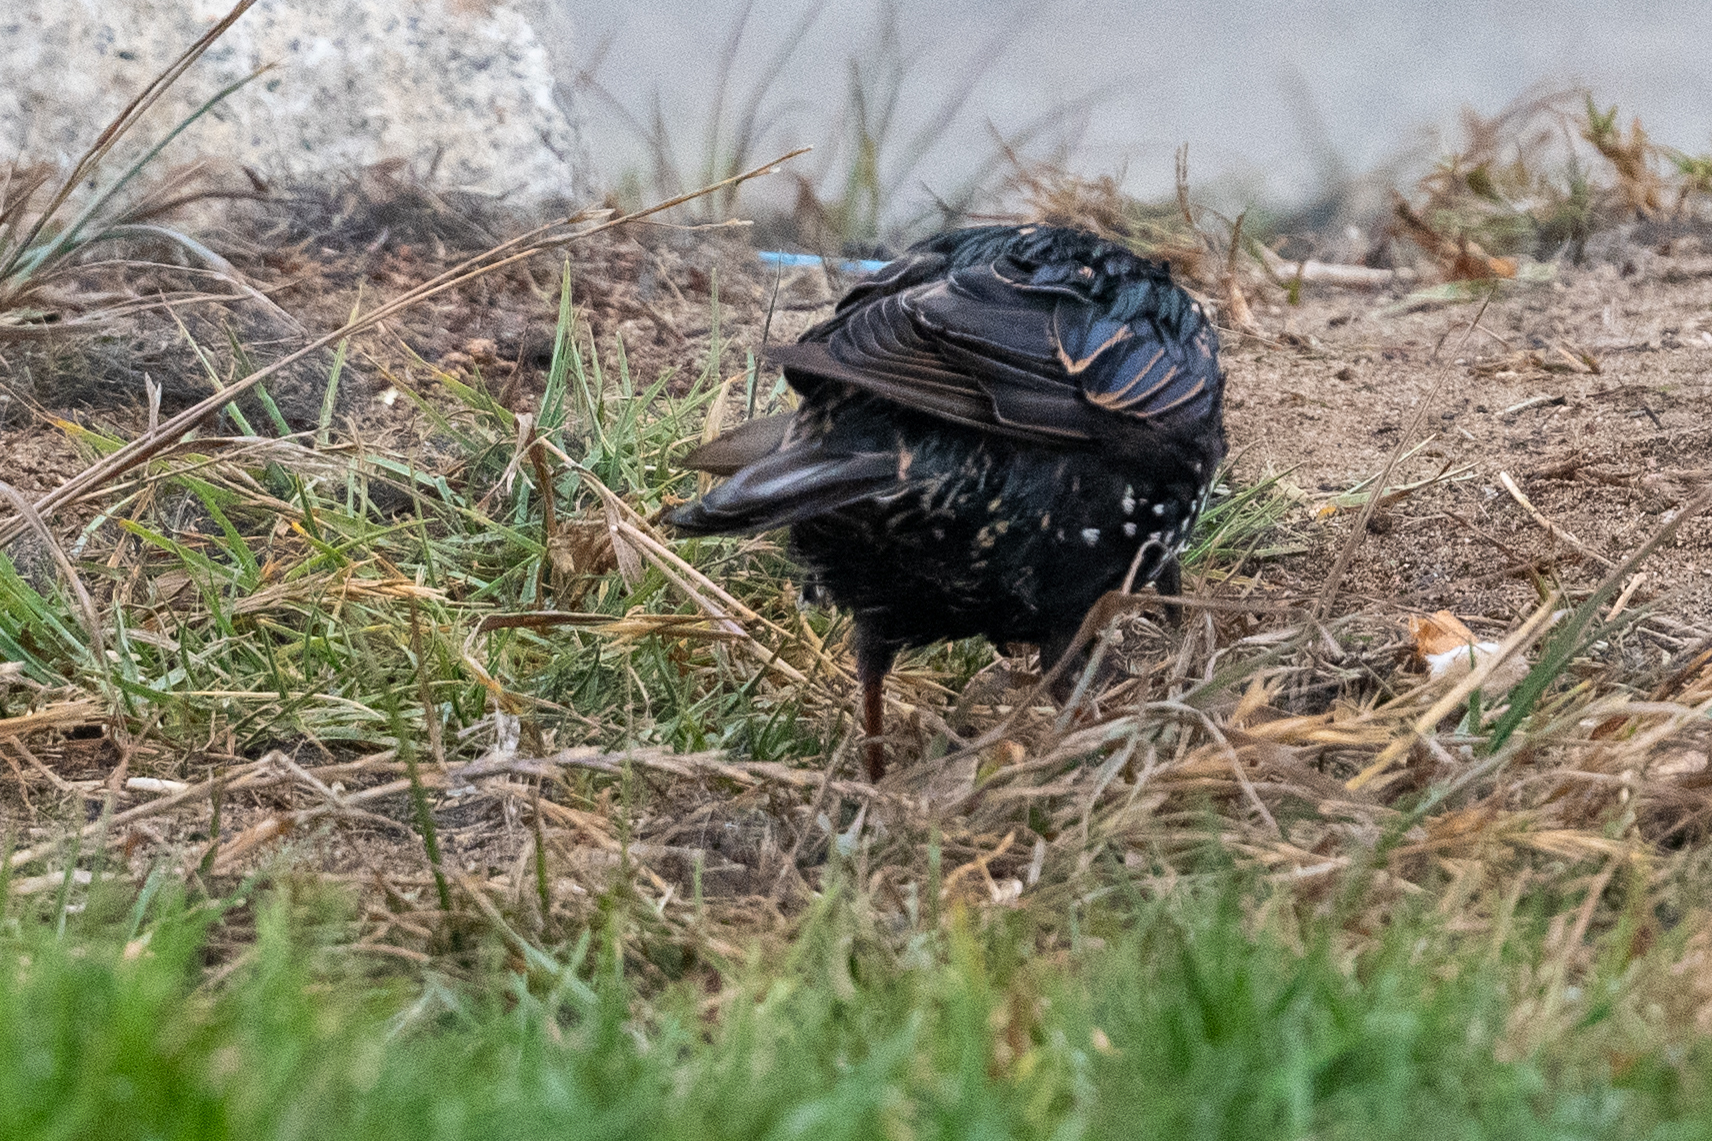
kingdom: Animalia
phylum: Chordata
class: Aves
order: Passeriformes
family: Sturnidae
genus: Sturnus
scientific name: Sturnus vulgaris
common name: Common starling
